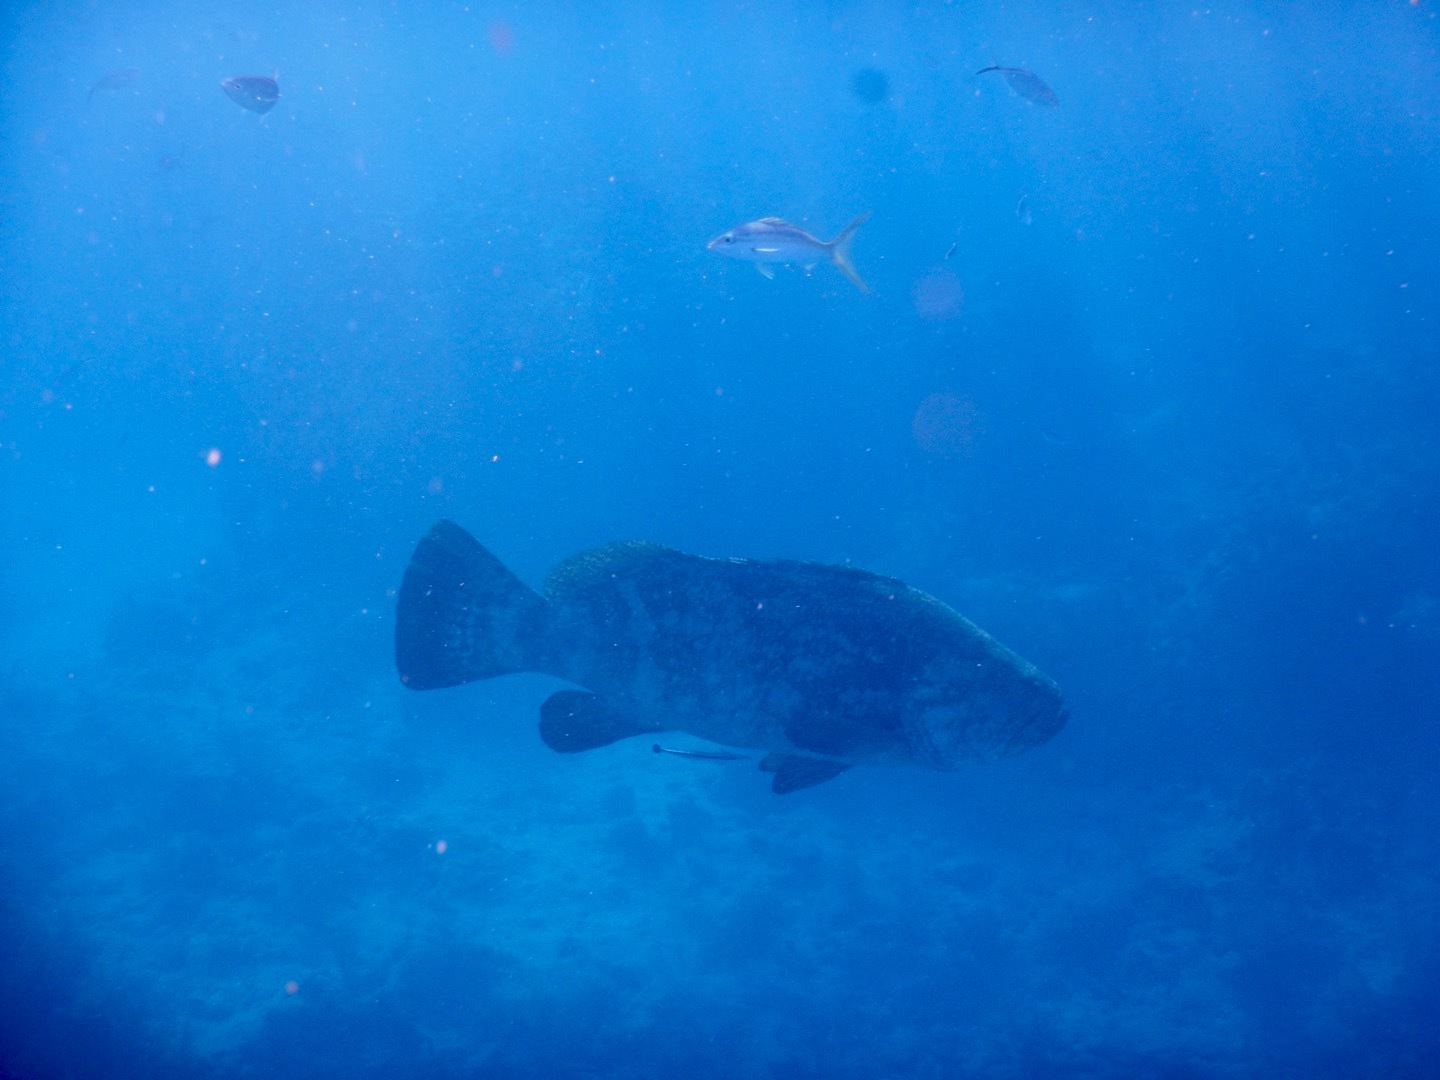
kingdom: Animalia
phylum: Chordata
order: Perciformes
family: Serranidae
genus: Epinephelus
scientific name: Epinephelus itajara
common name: Jewfish
